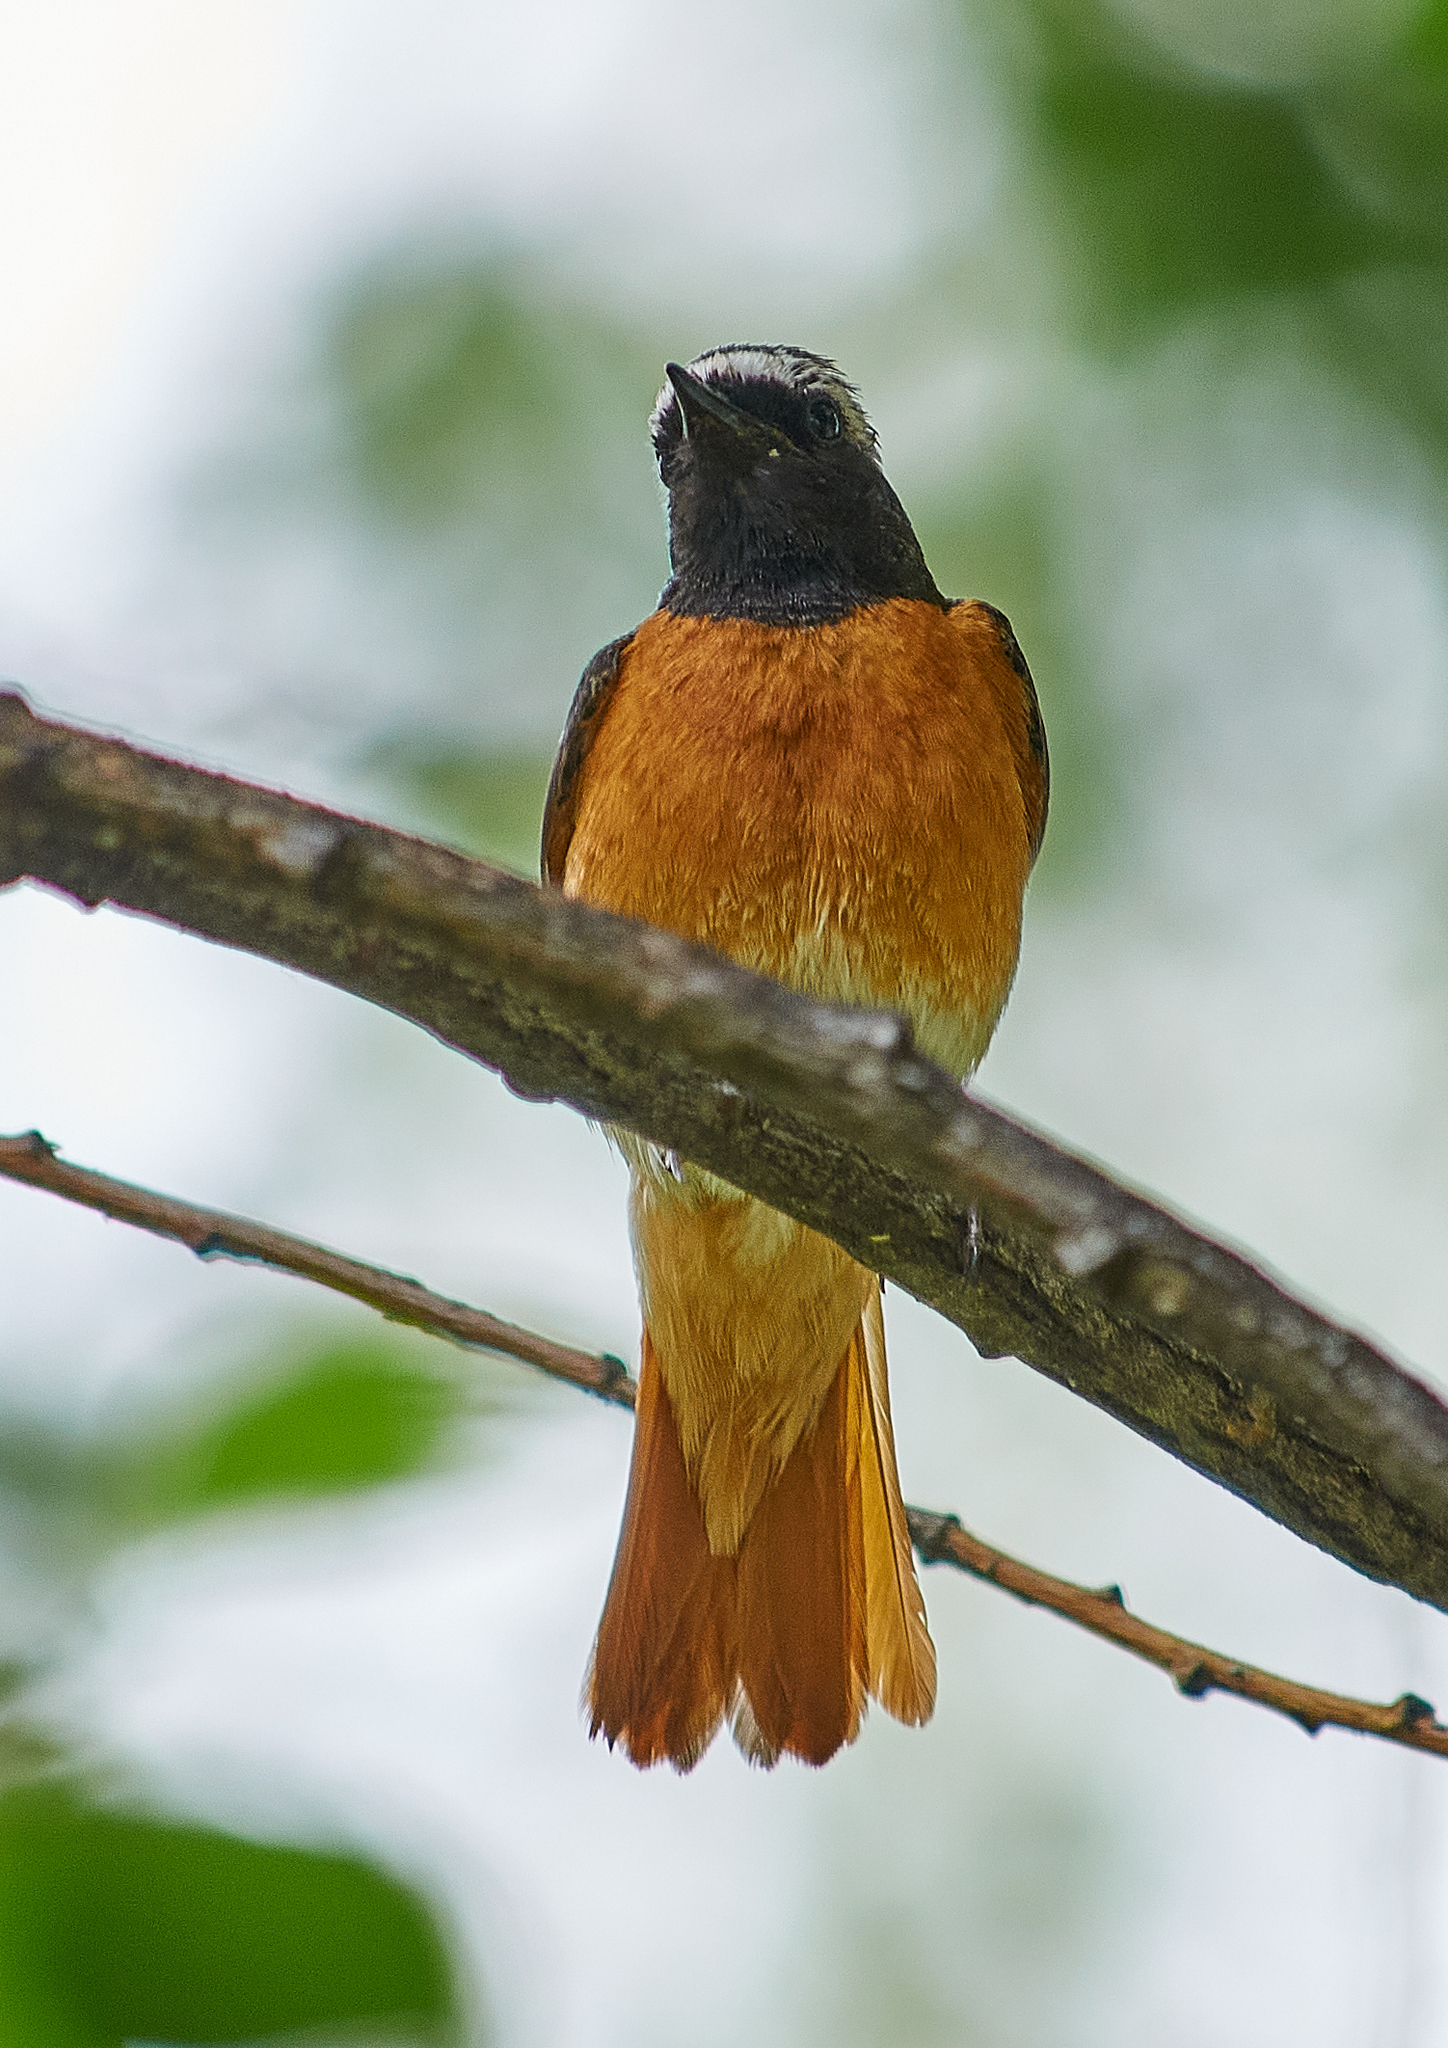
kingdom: Animalia
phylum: Chordata
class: Aves
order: Passeriformes
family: Muscicapidae
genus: Phoenicurus
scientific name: Phoenicurus phoenicurus
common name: Common redstart
